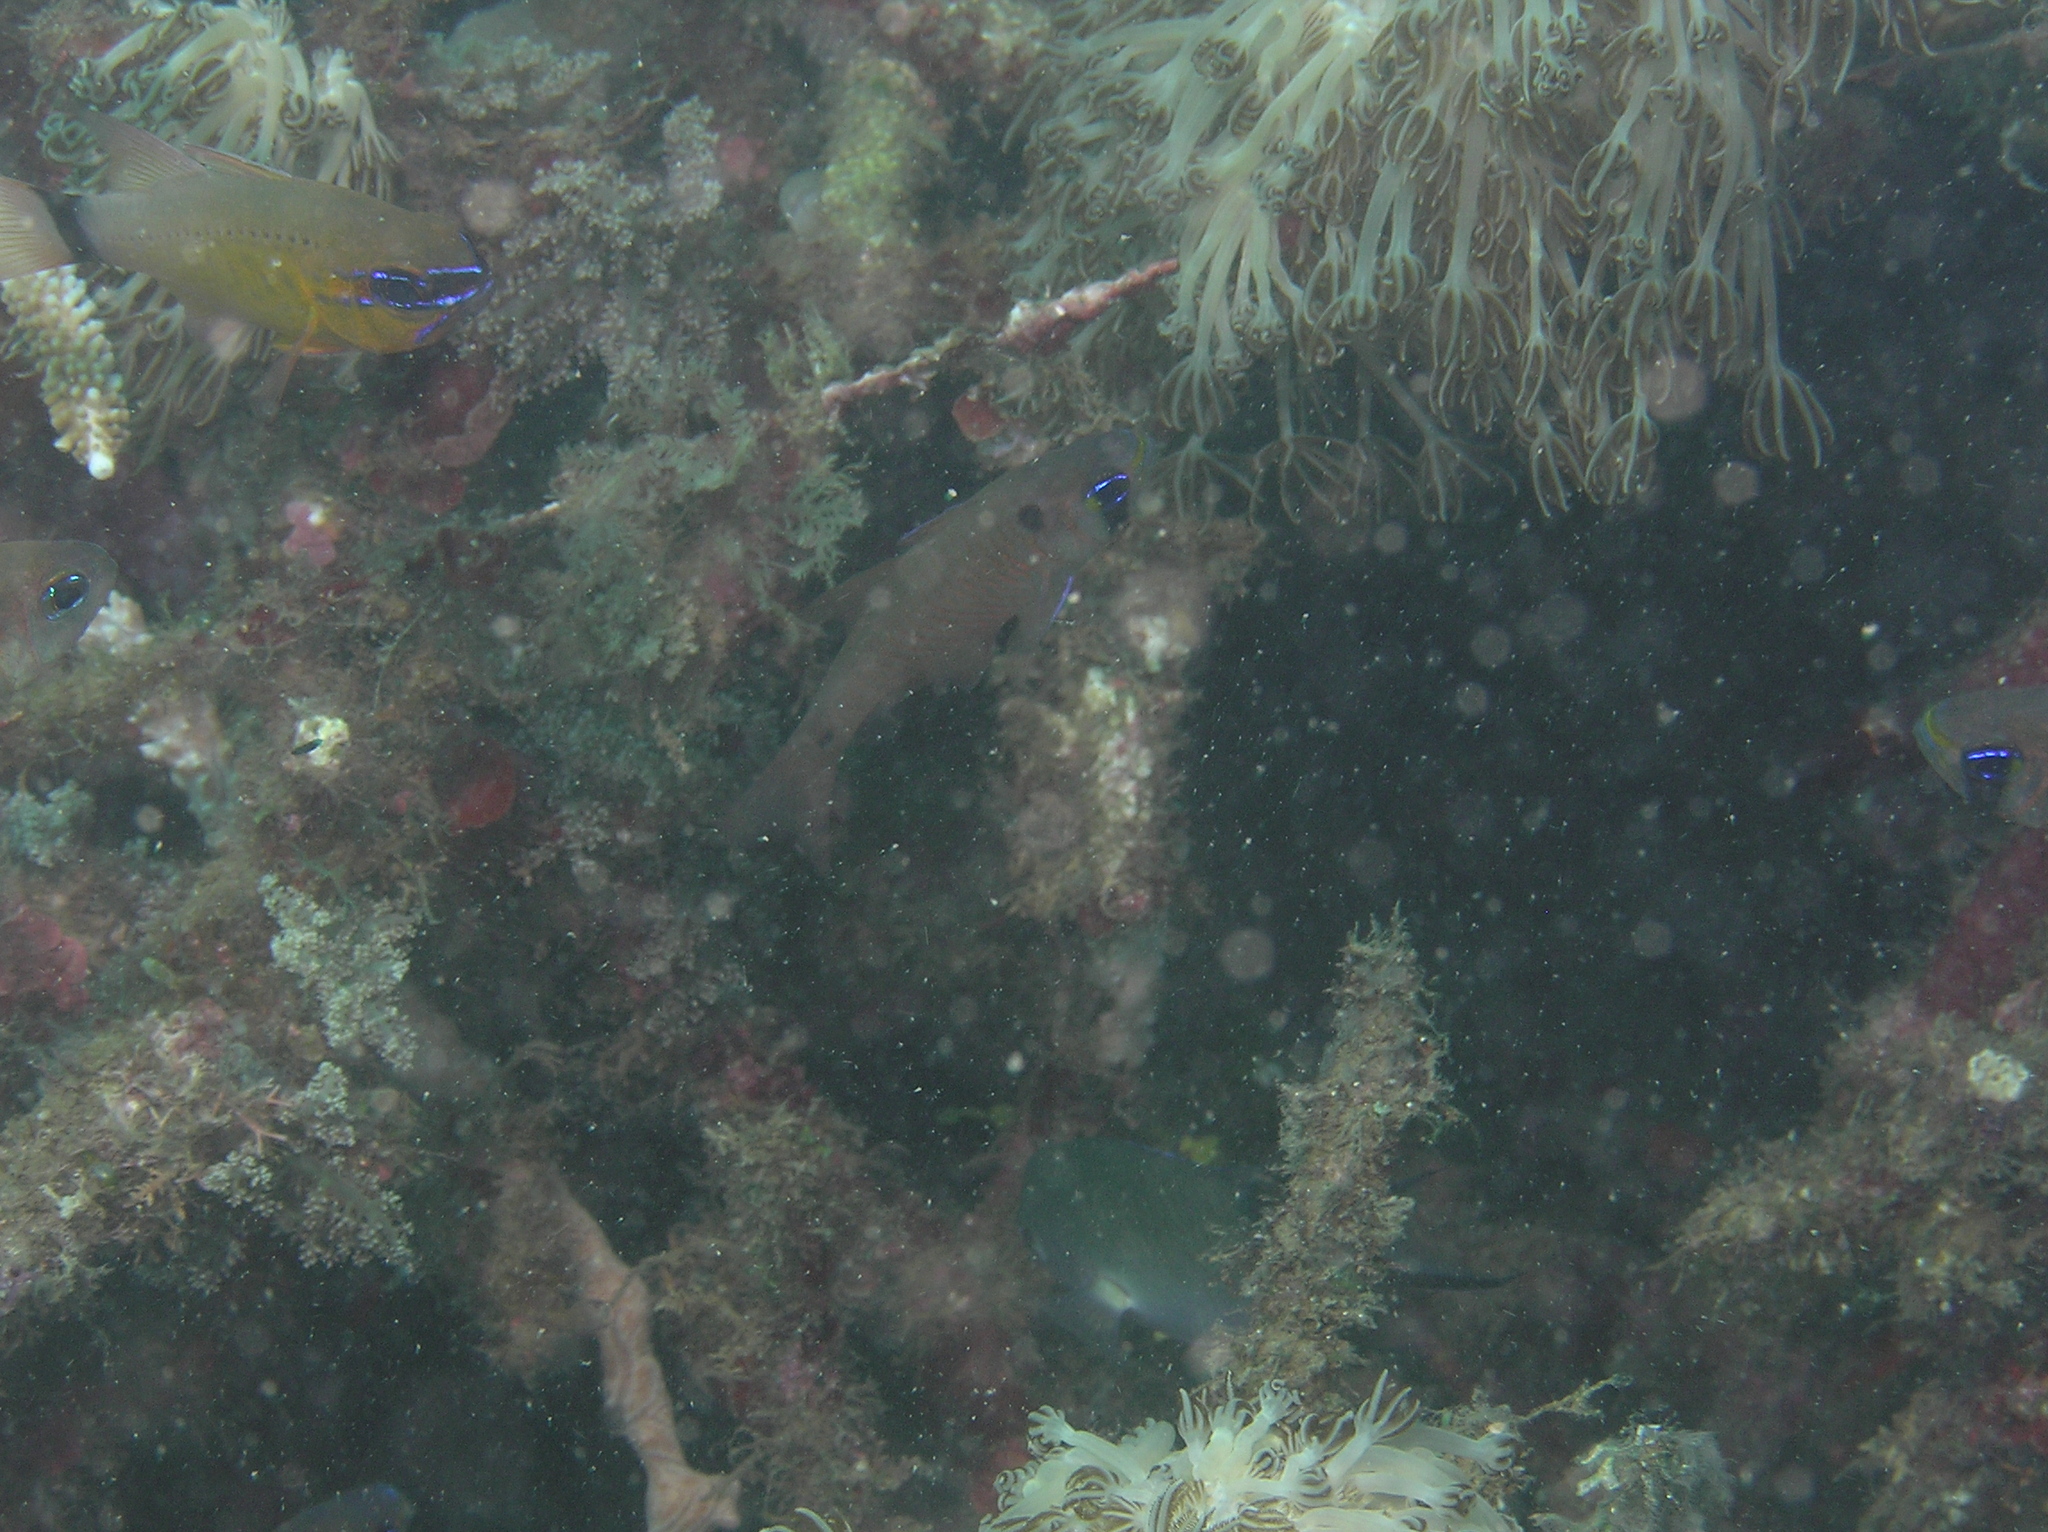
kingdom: Animalia
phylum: Chordata
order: Perciformes
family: Apogonidae
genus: Taeniamia
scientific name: Taeniamia biguttata
